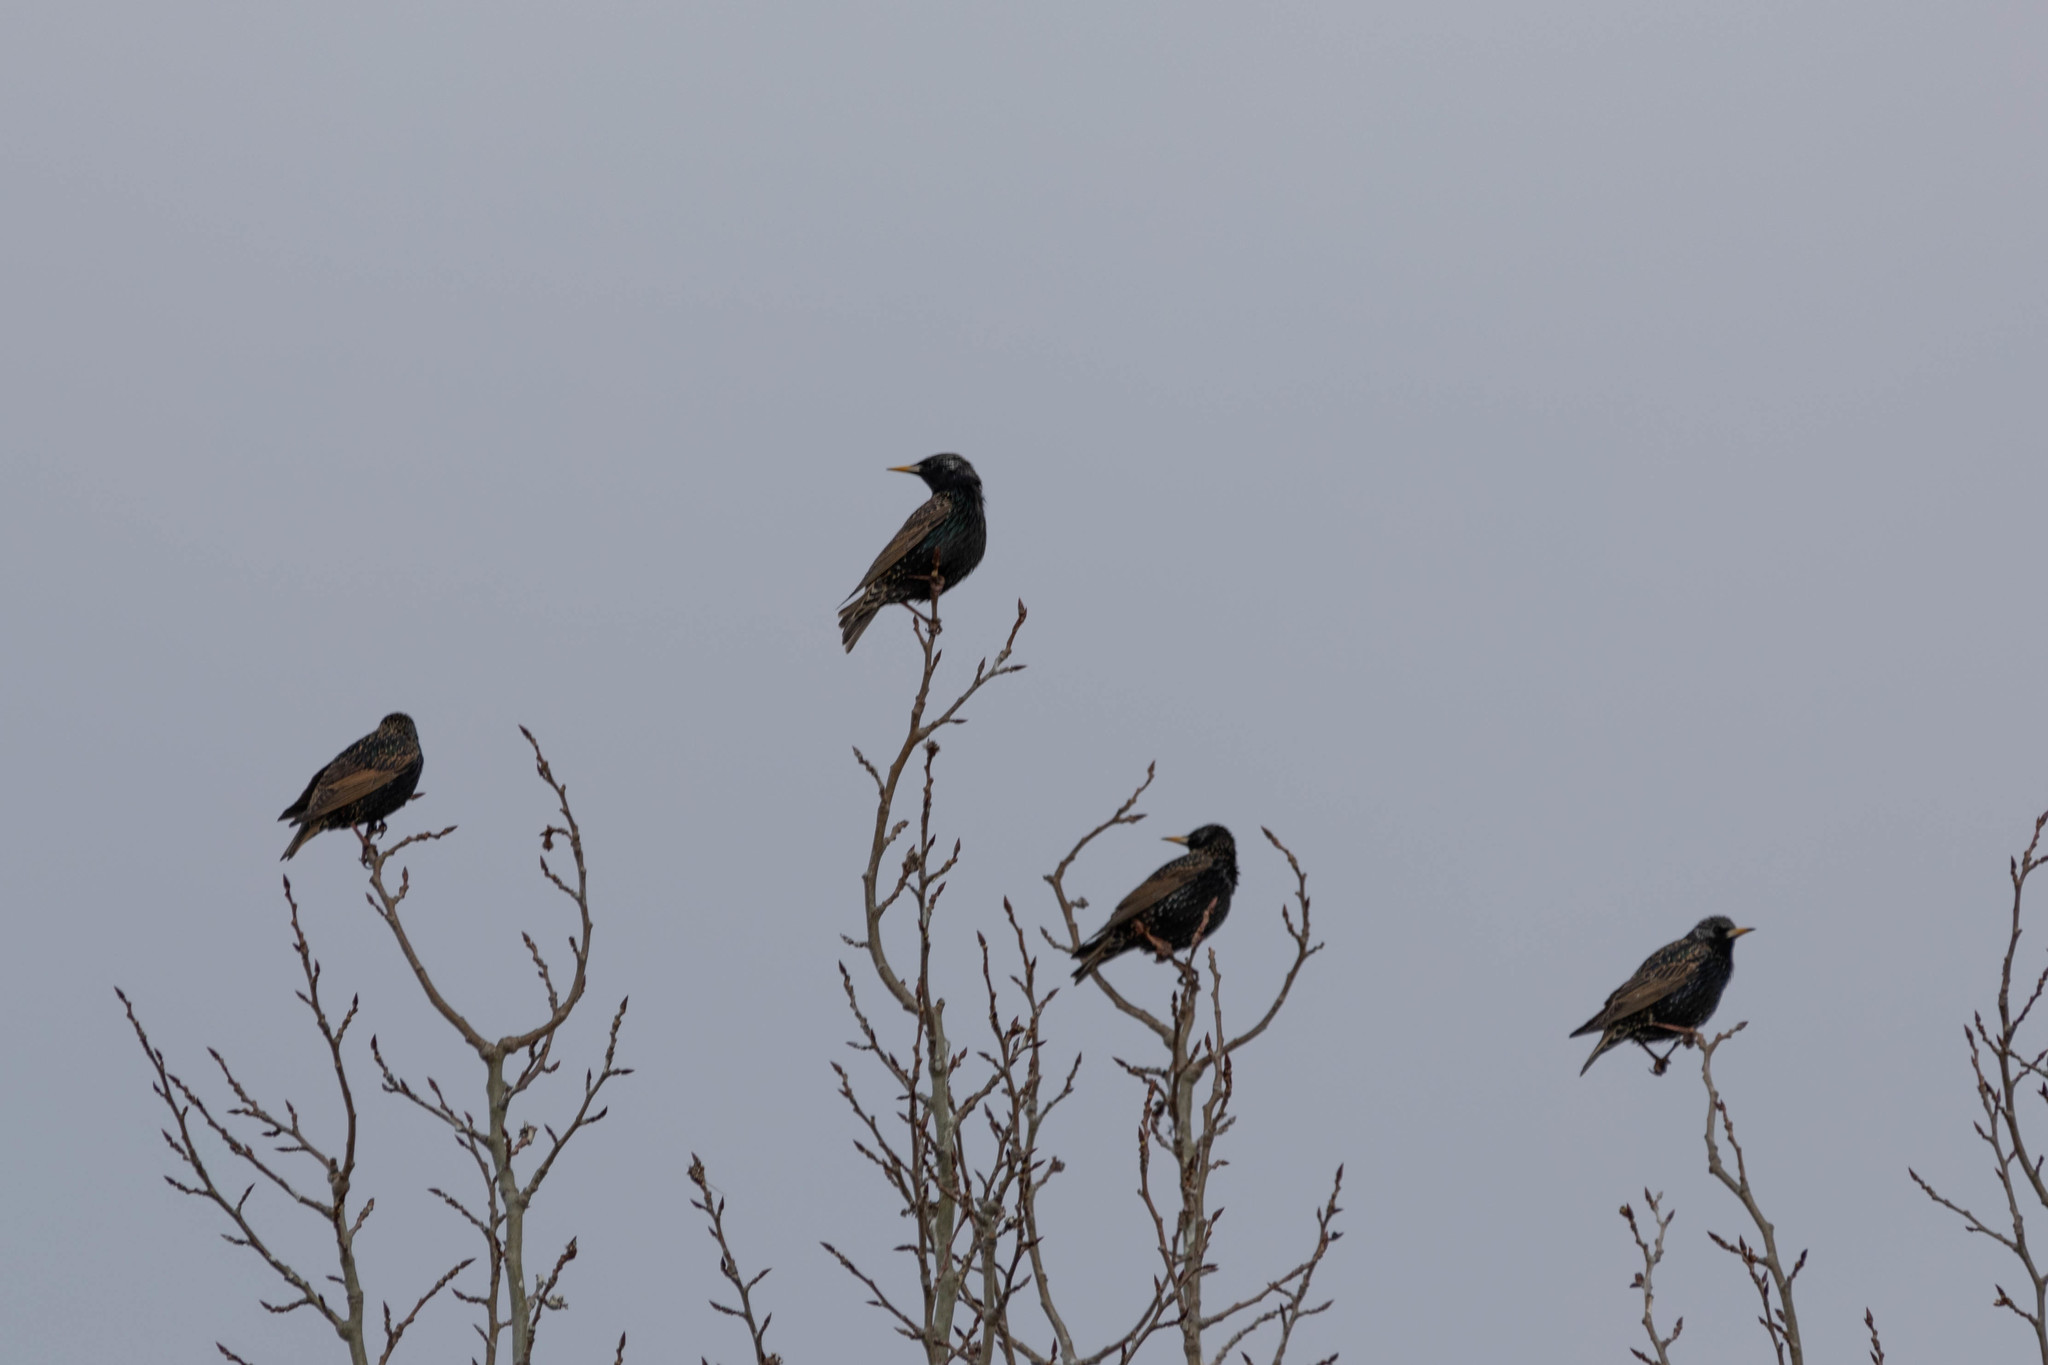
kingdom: Animalia
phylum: Chordata
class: Aves
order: Passeriformes
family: Sturnidae
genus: Sturnus
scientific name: Sturnus vulgaris
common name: Common starling
